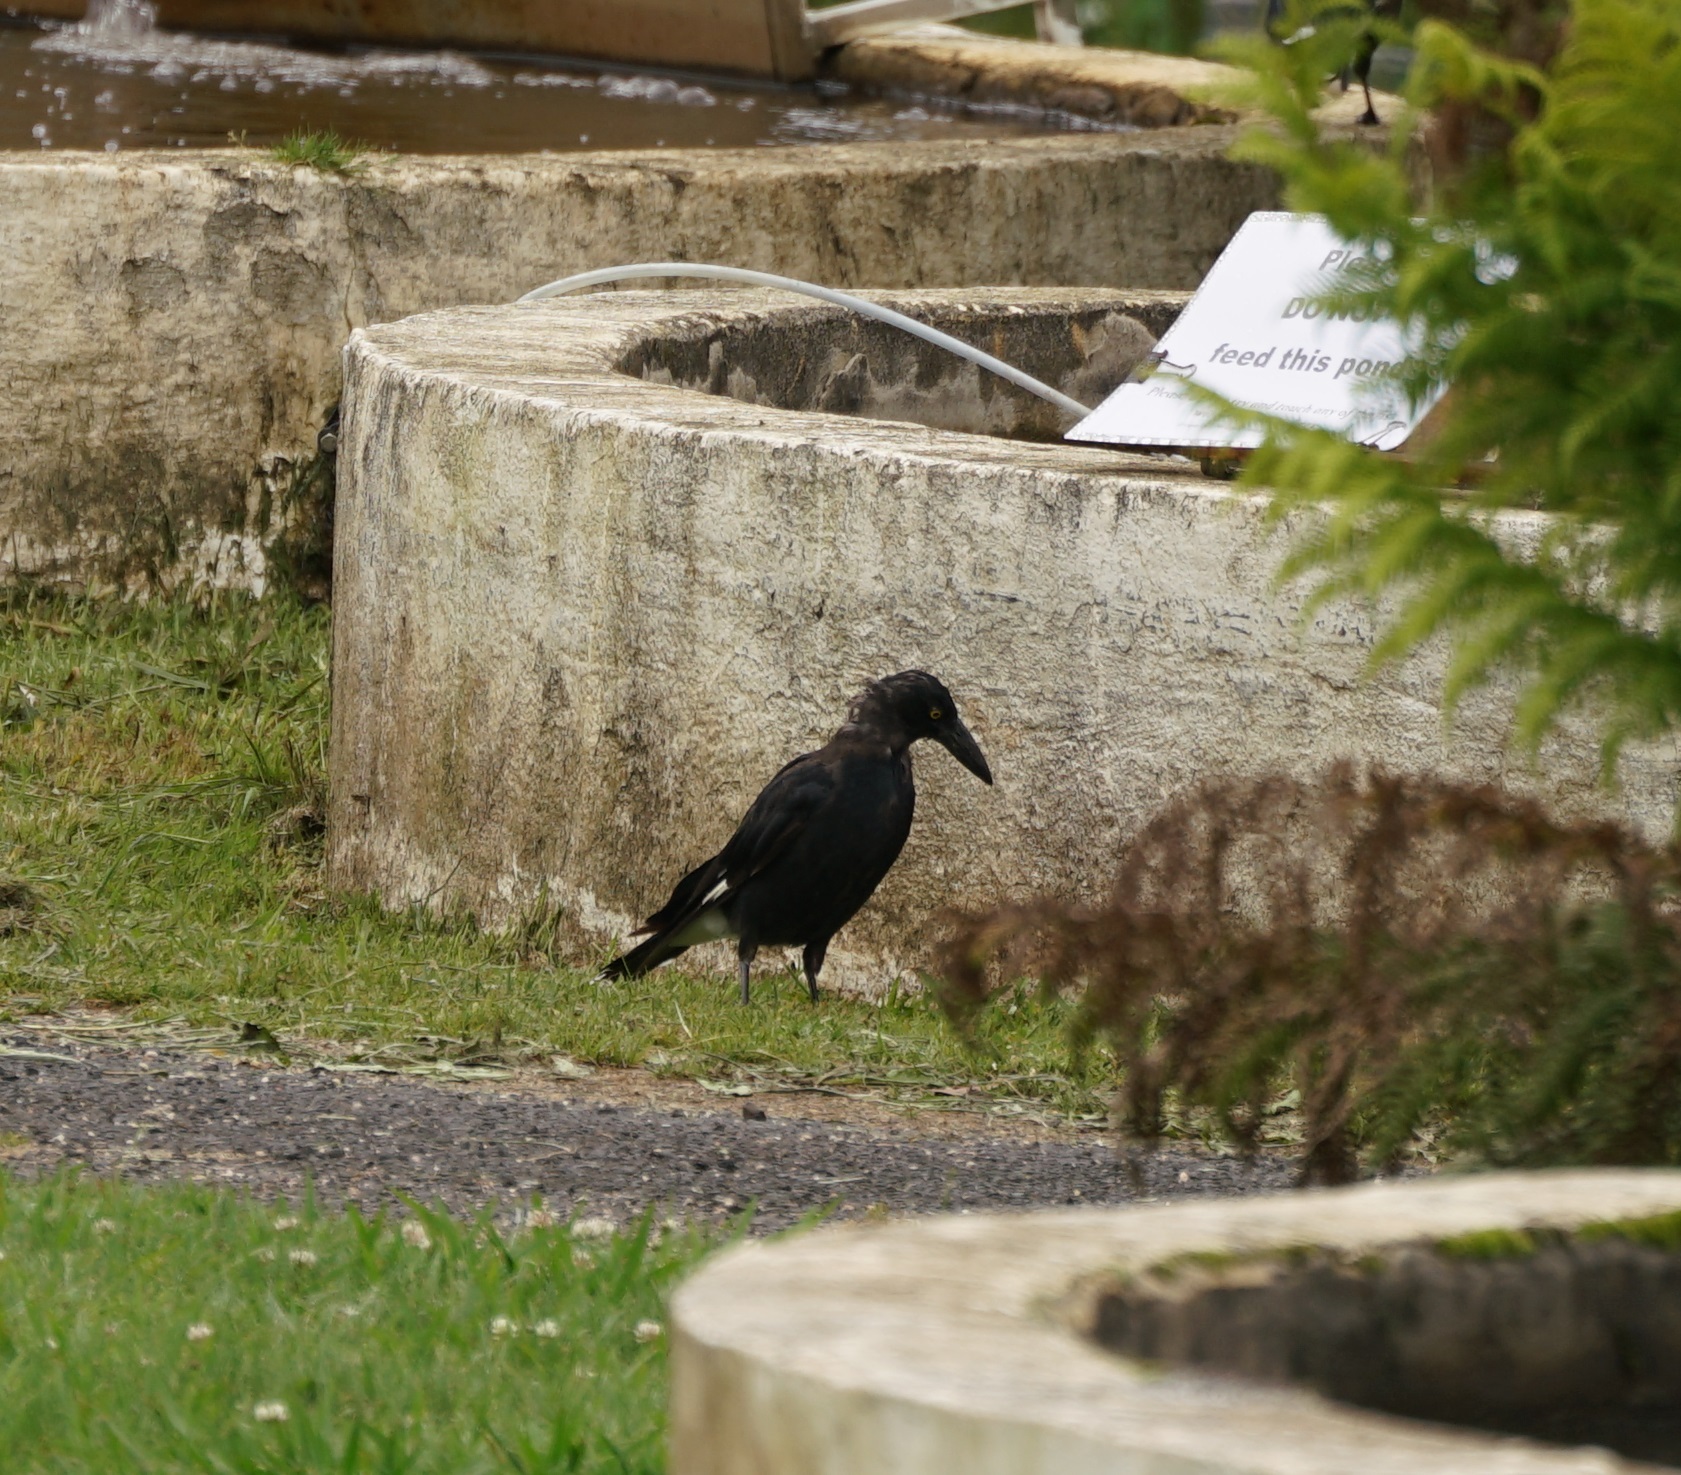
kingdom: Animalia
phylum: Chordata
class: Aves
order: Passeriformes
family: Cracticidae
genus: Strepera
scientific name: Strepera graculina
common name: Pied currawong
